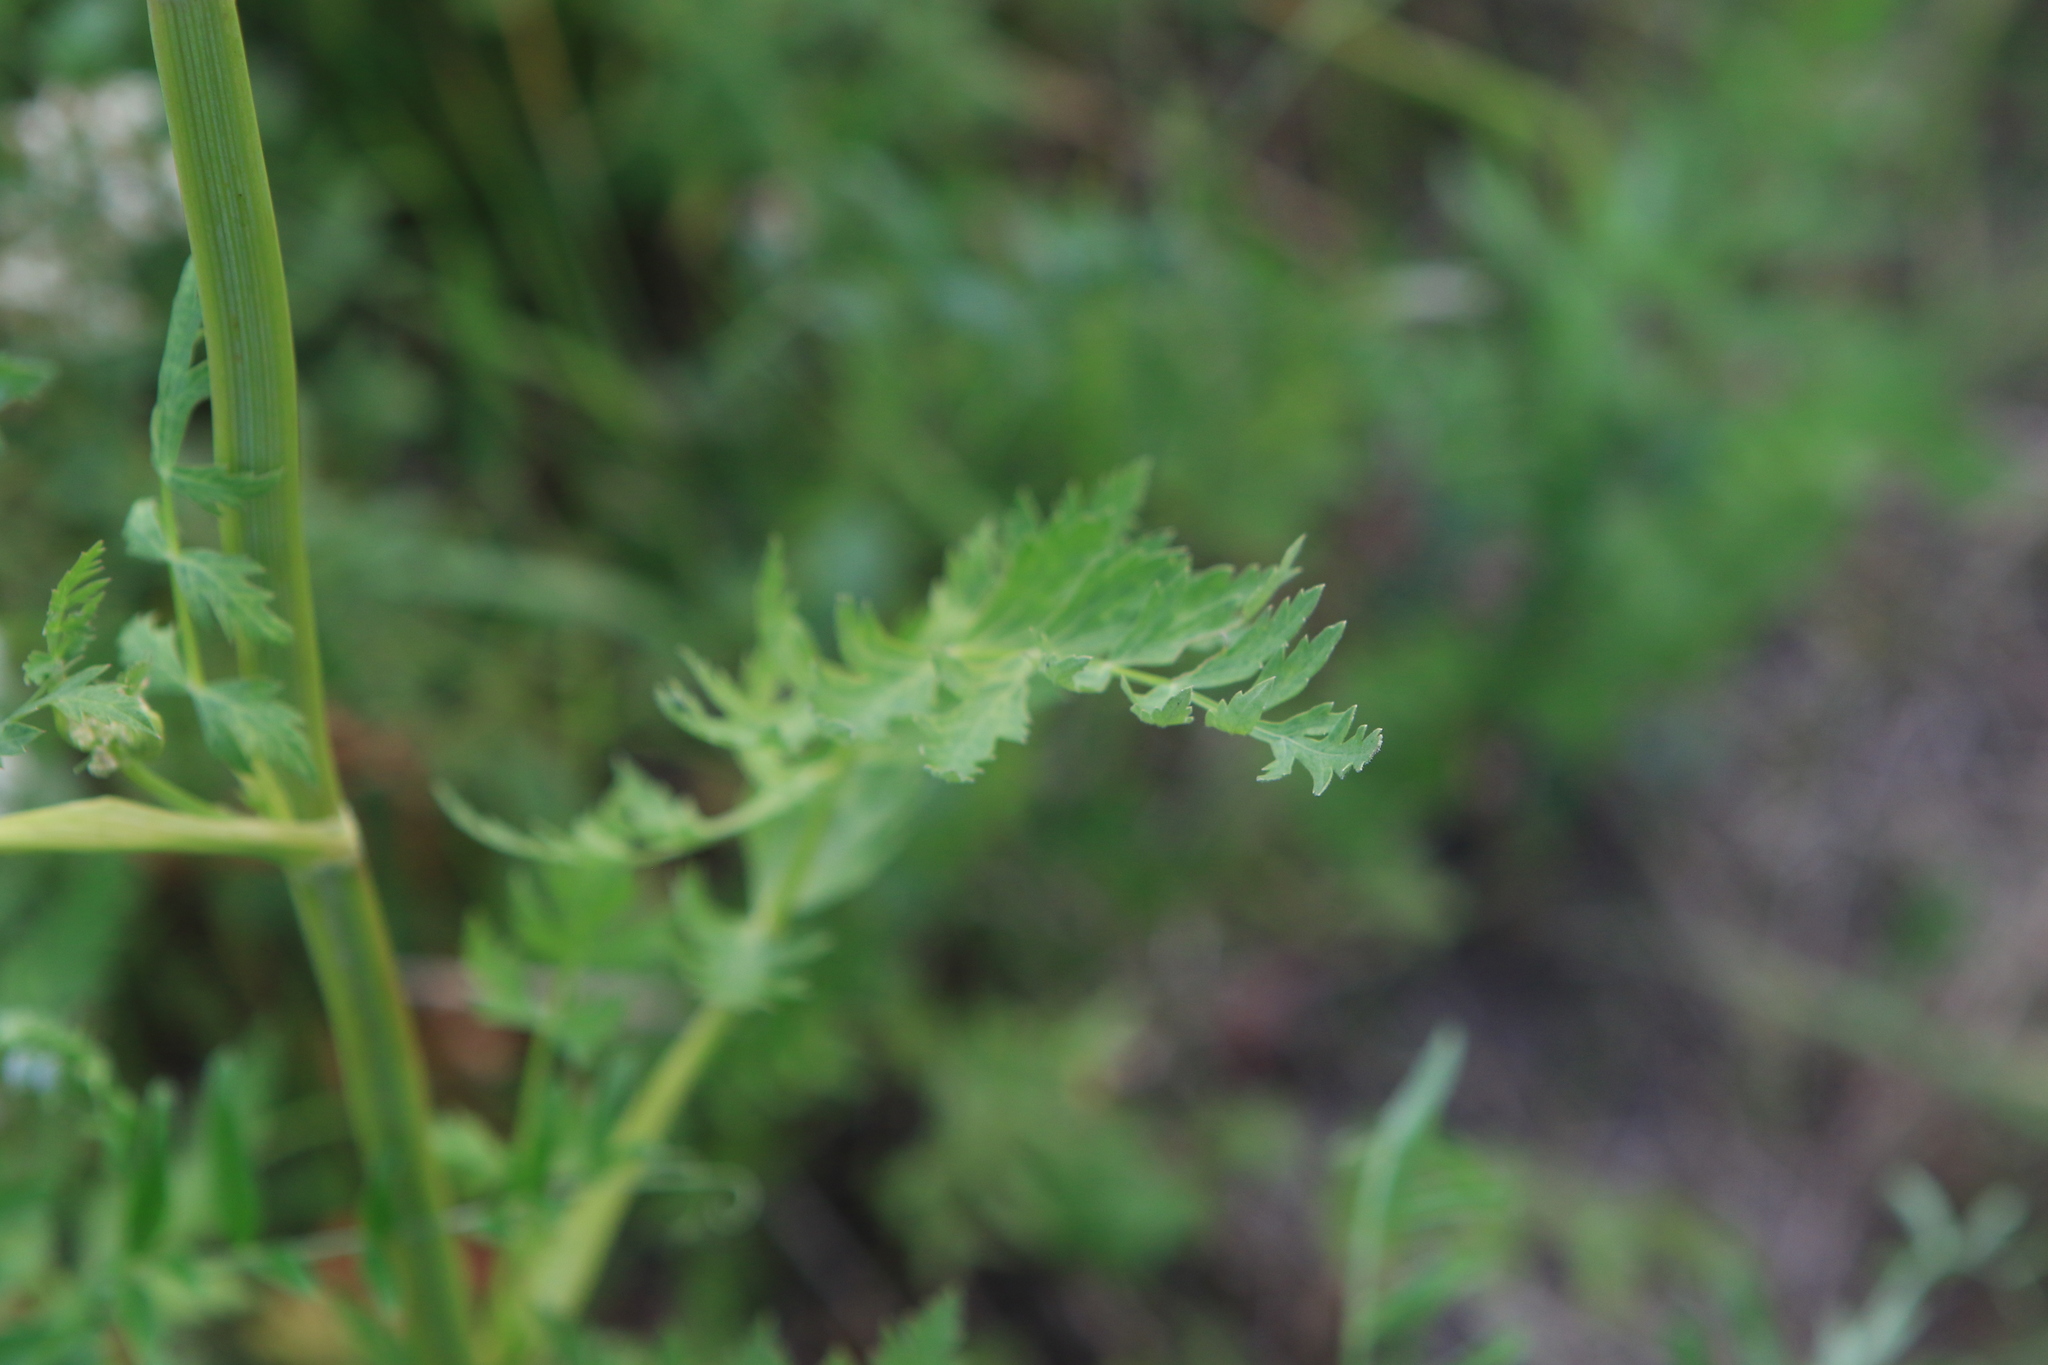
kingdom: Plantae
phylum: Tracheophyta
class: Magnoliopsida
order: Apiales
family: Apiaceae
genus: Seseli
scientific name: Seseli libanotis
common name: Mooncarrot
